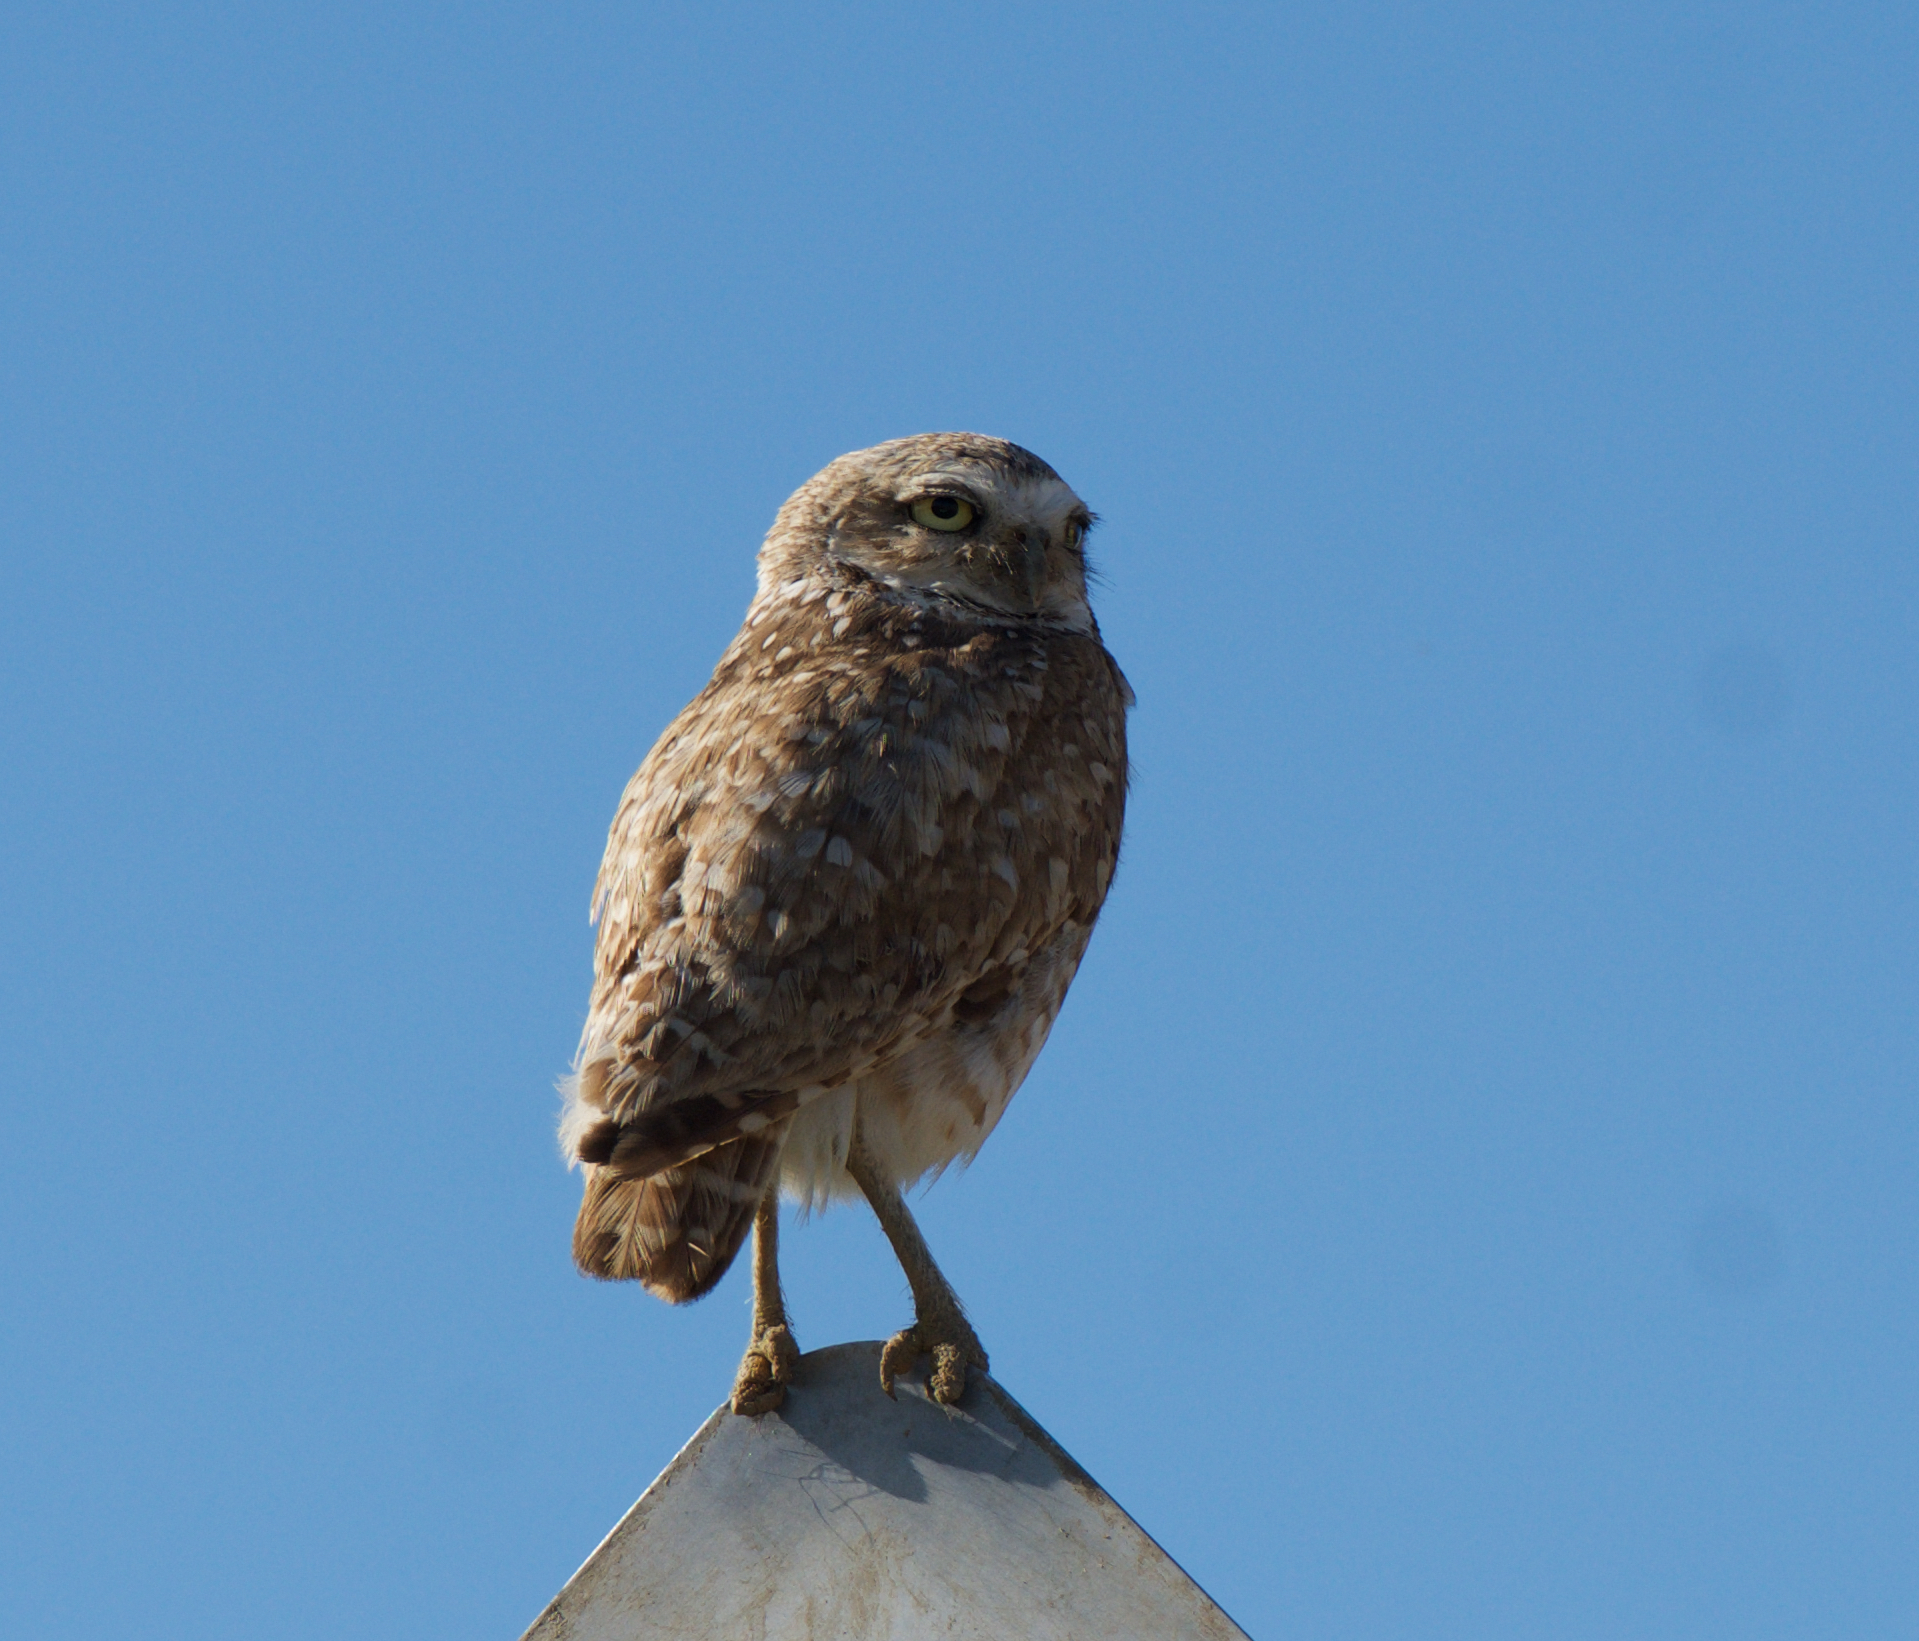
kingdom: Animalia
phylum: Chordata
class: Aves
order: Strigiformes
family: Strigidae
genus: Athene
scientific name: Athene cunicularia
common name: Burrowing owl
